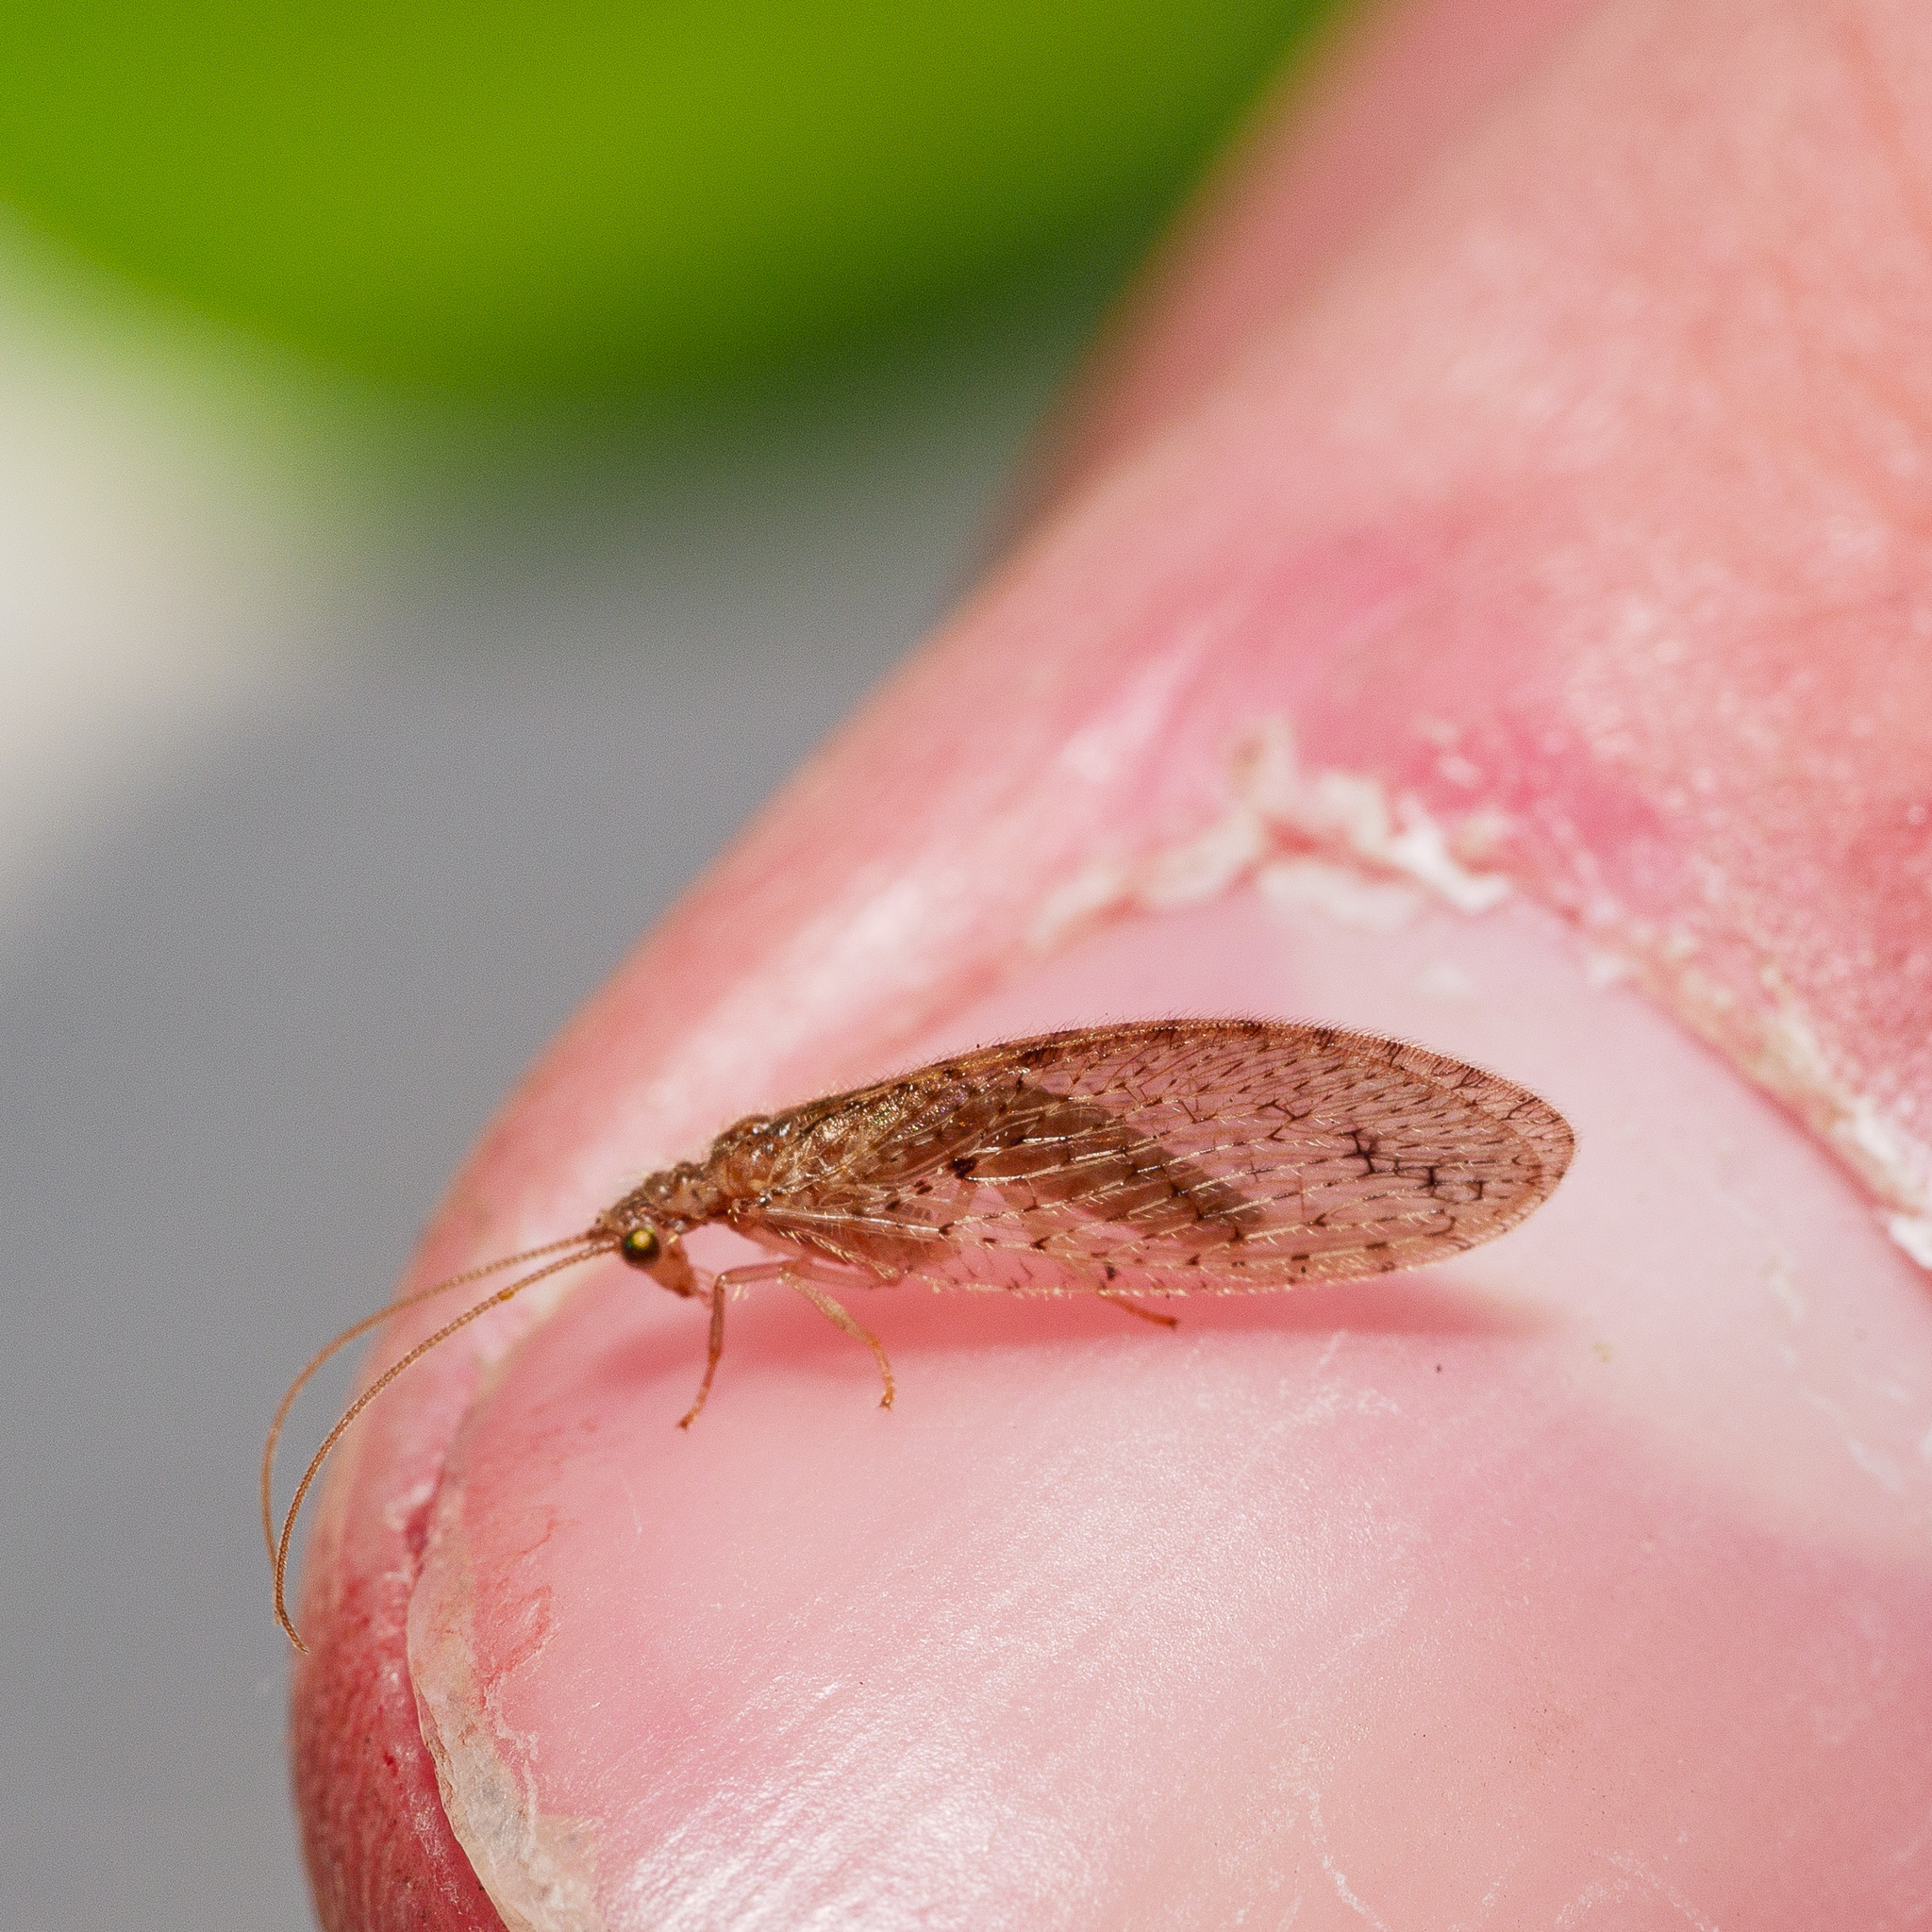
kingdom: Animalia
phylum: Arthropoda
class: Insecta
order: Neuroptera
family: Hemerobiidae
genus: Micromus
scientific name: Micromus tasmaniae
